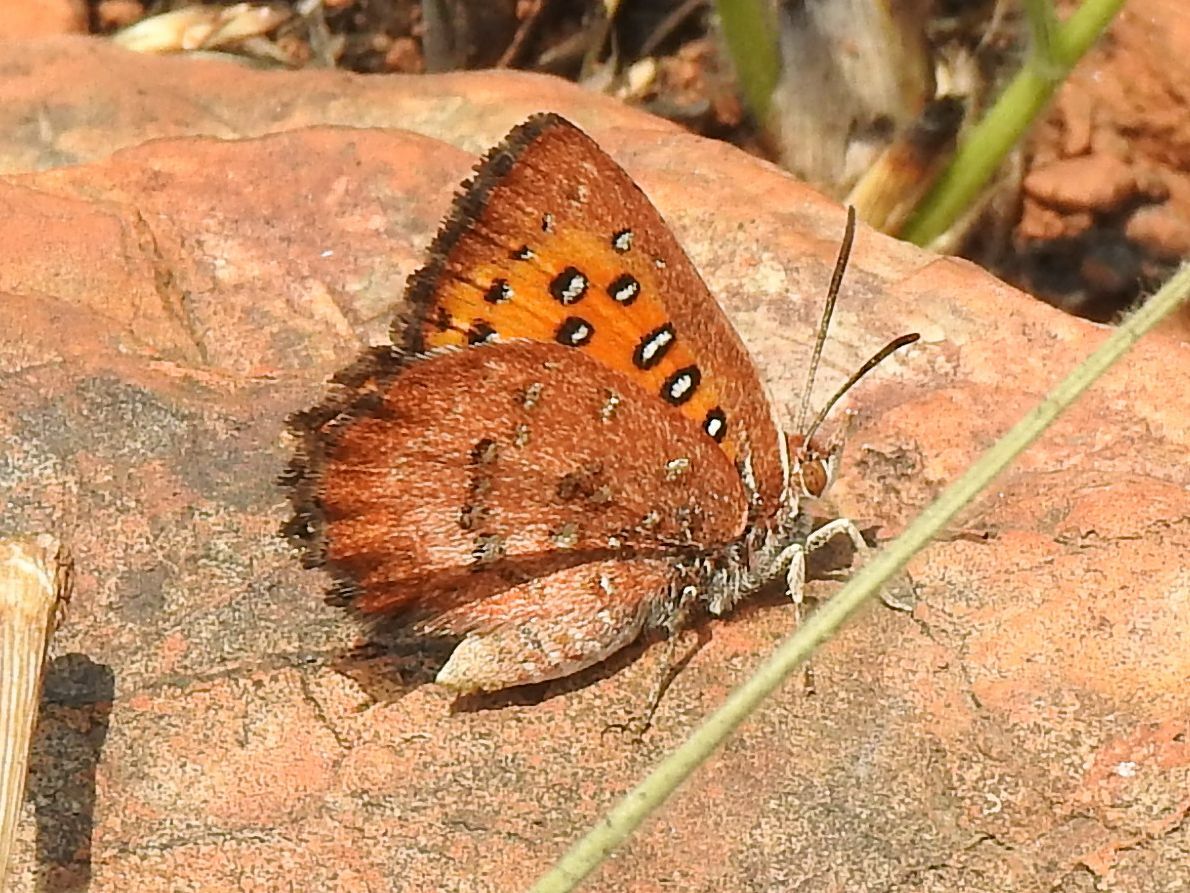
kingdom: Animalia
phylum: Arthropoda
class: Insecta
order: Lepidoptera
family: Lycaenidae
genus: Aloeides
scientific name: Aloeides swanepoeli
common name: Swanepoel's copper
